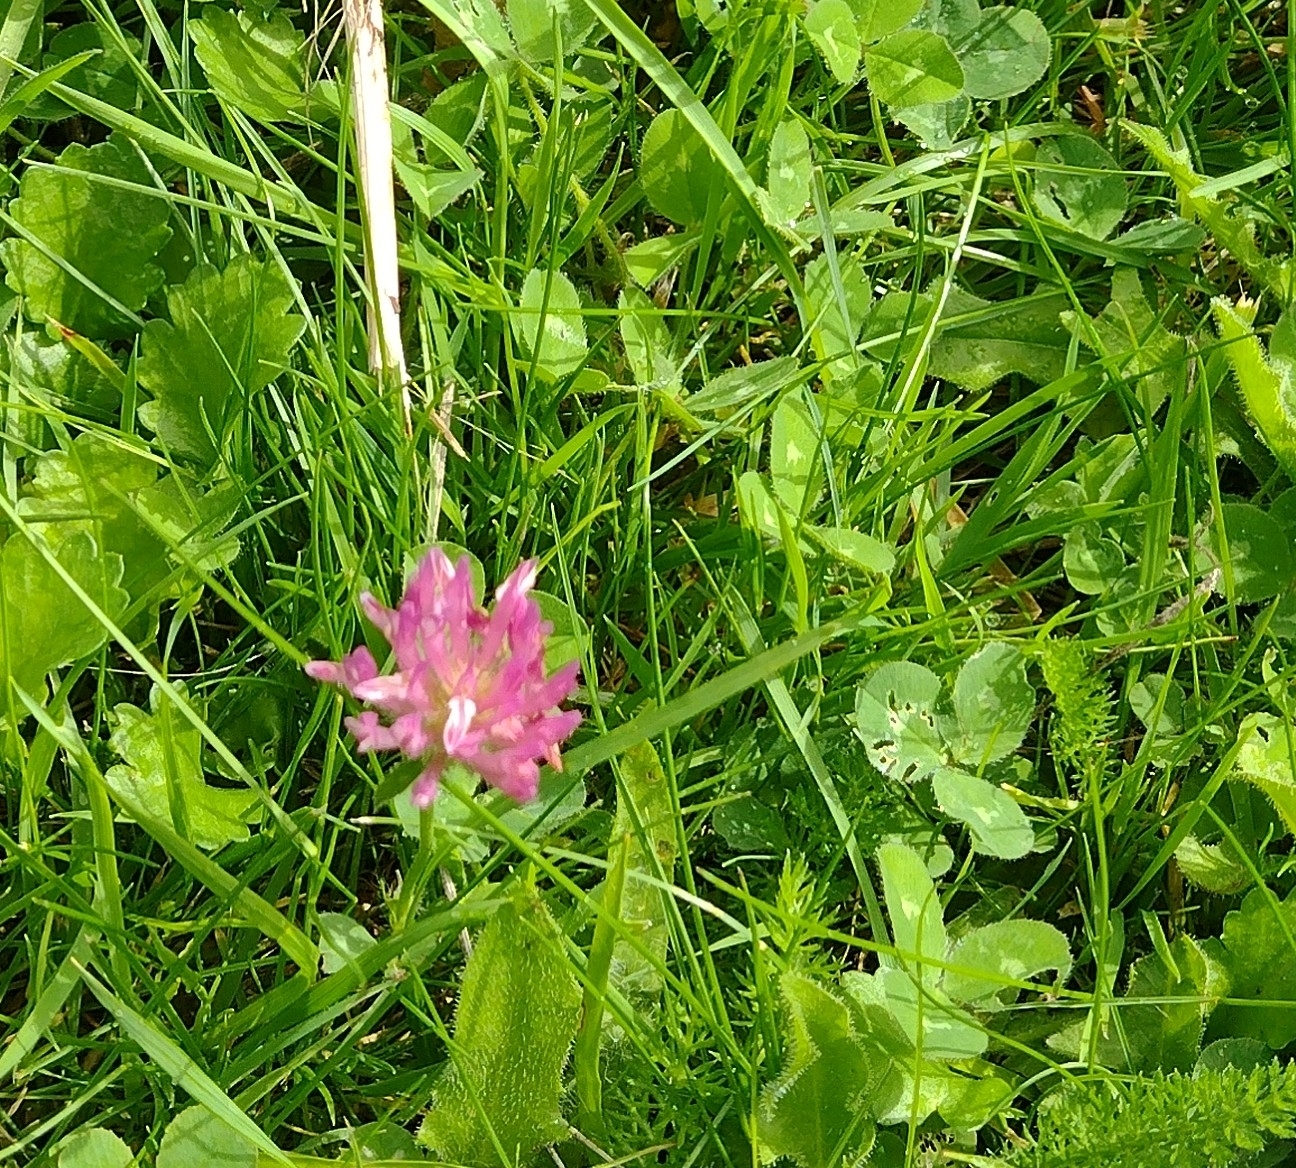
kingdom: Plantae
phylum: Tracheophyta
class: Magnoliopsida
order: Fabales
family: Fabaceae
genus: Trifolium
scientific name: Trifolium pratense
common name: Red clover
